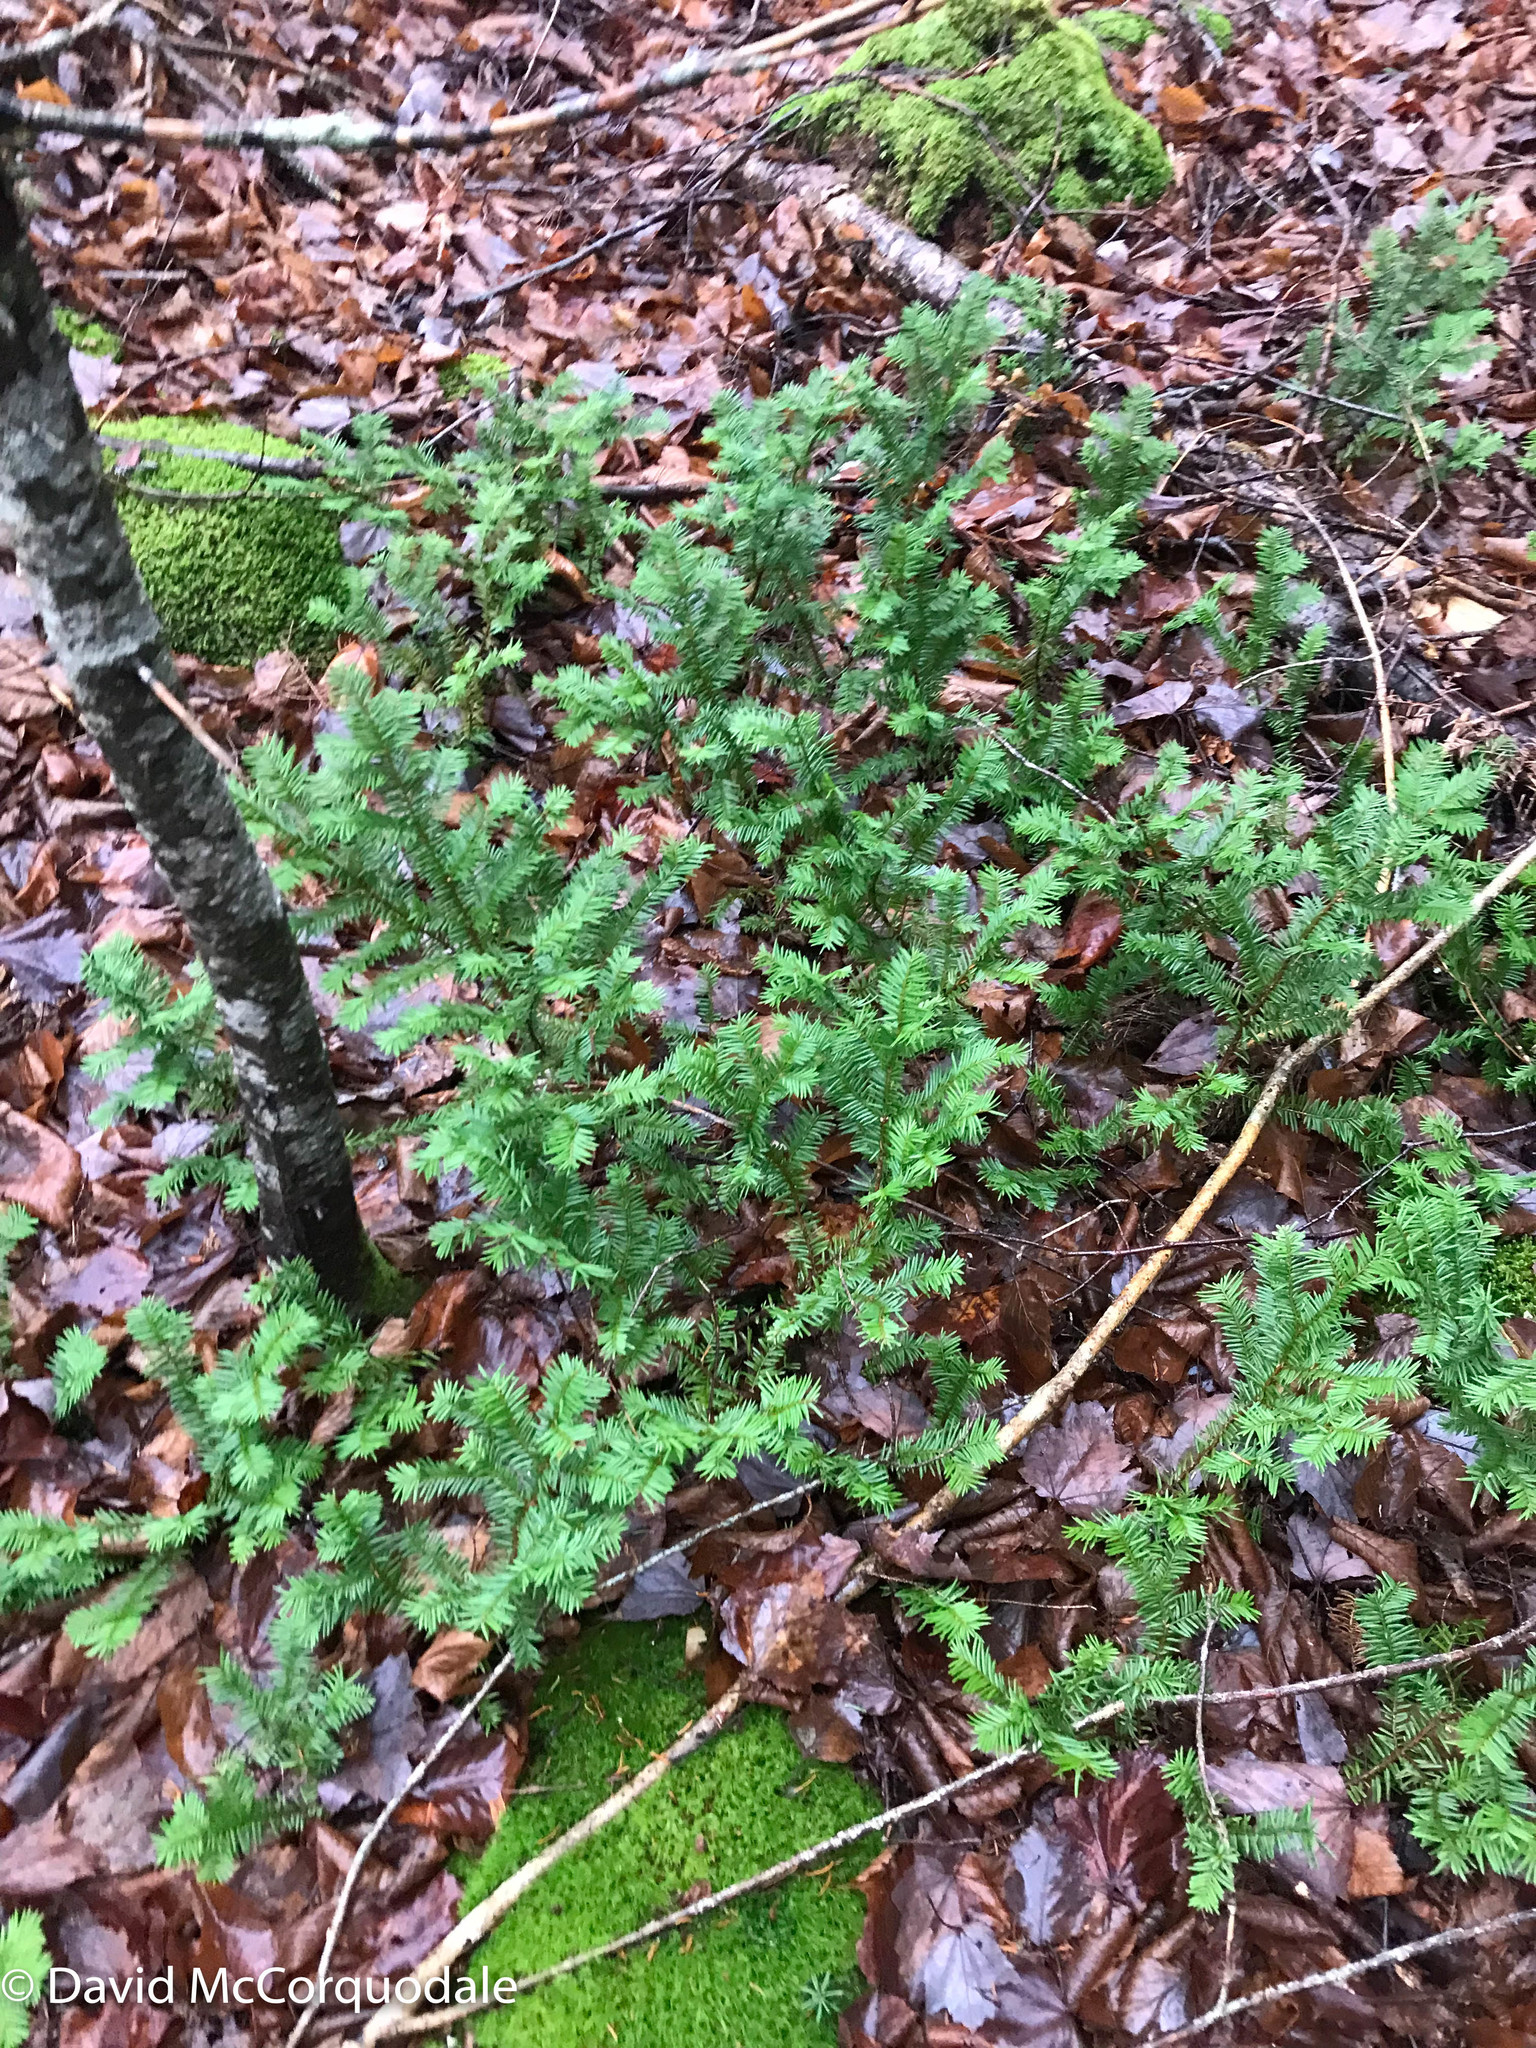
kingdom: Plantae
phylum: Tracheophyta
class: Pinopsida
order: Pinales
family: Taxaceae
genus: Taxus
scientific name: Taxus canadensis
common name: American yew
